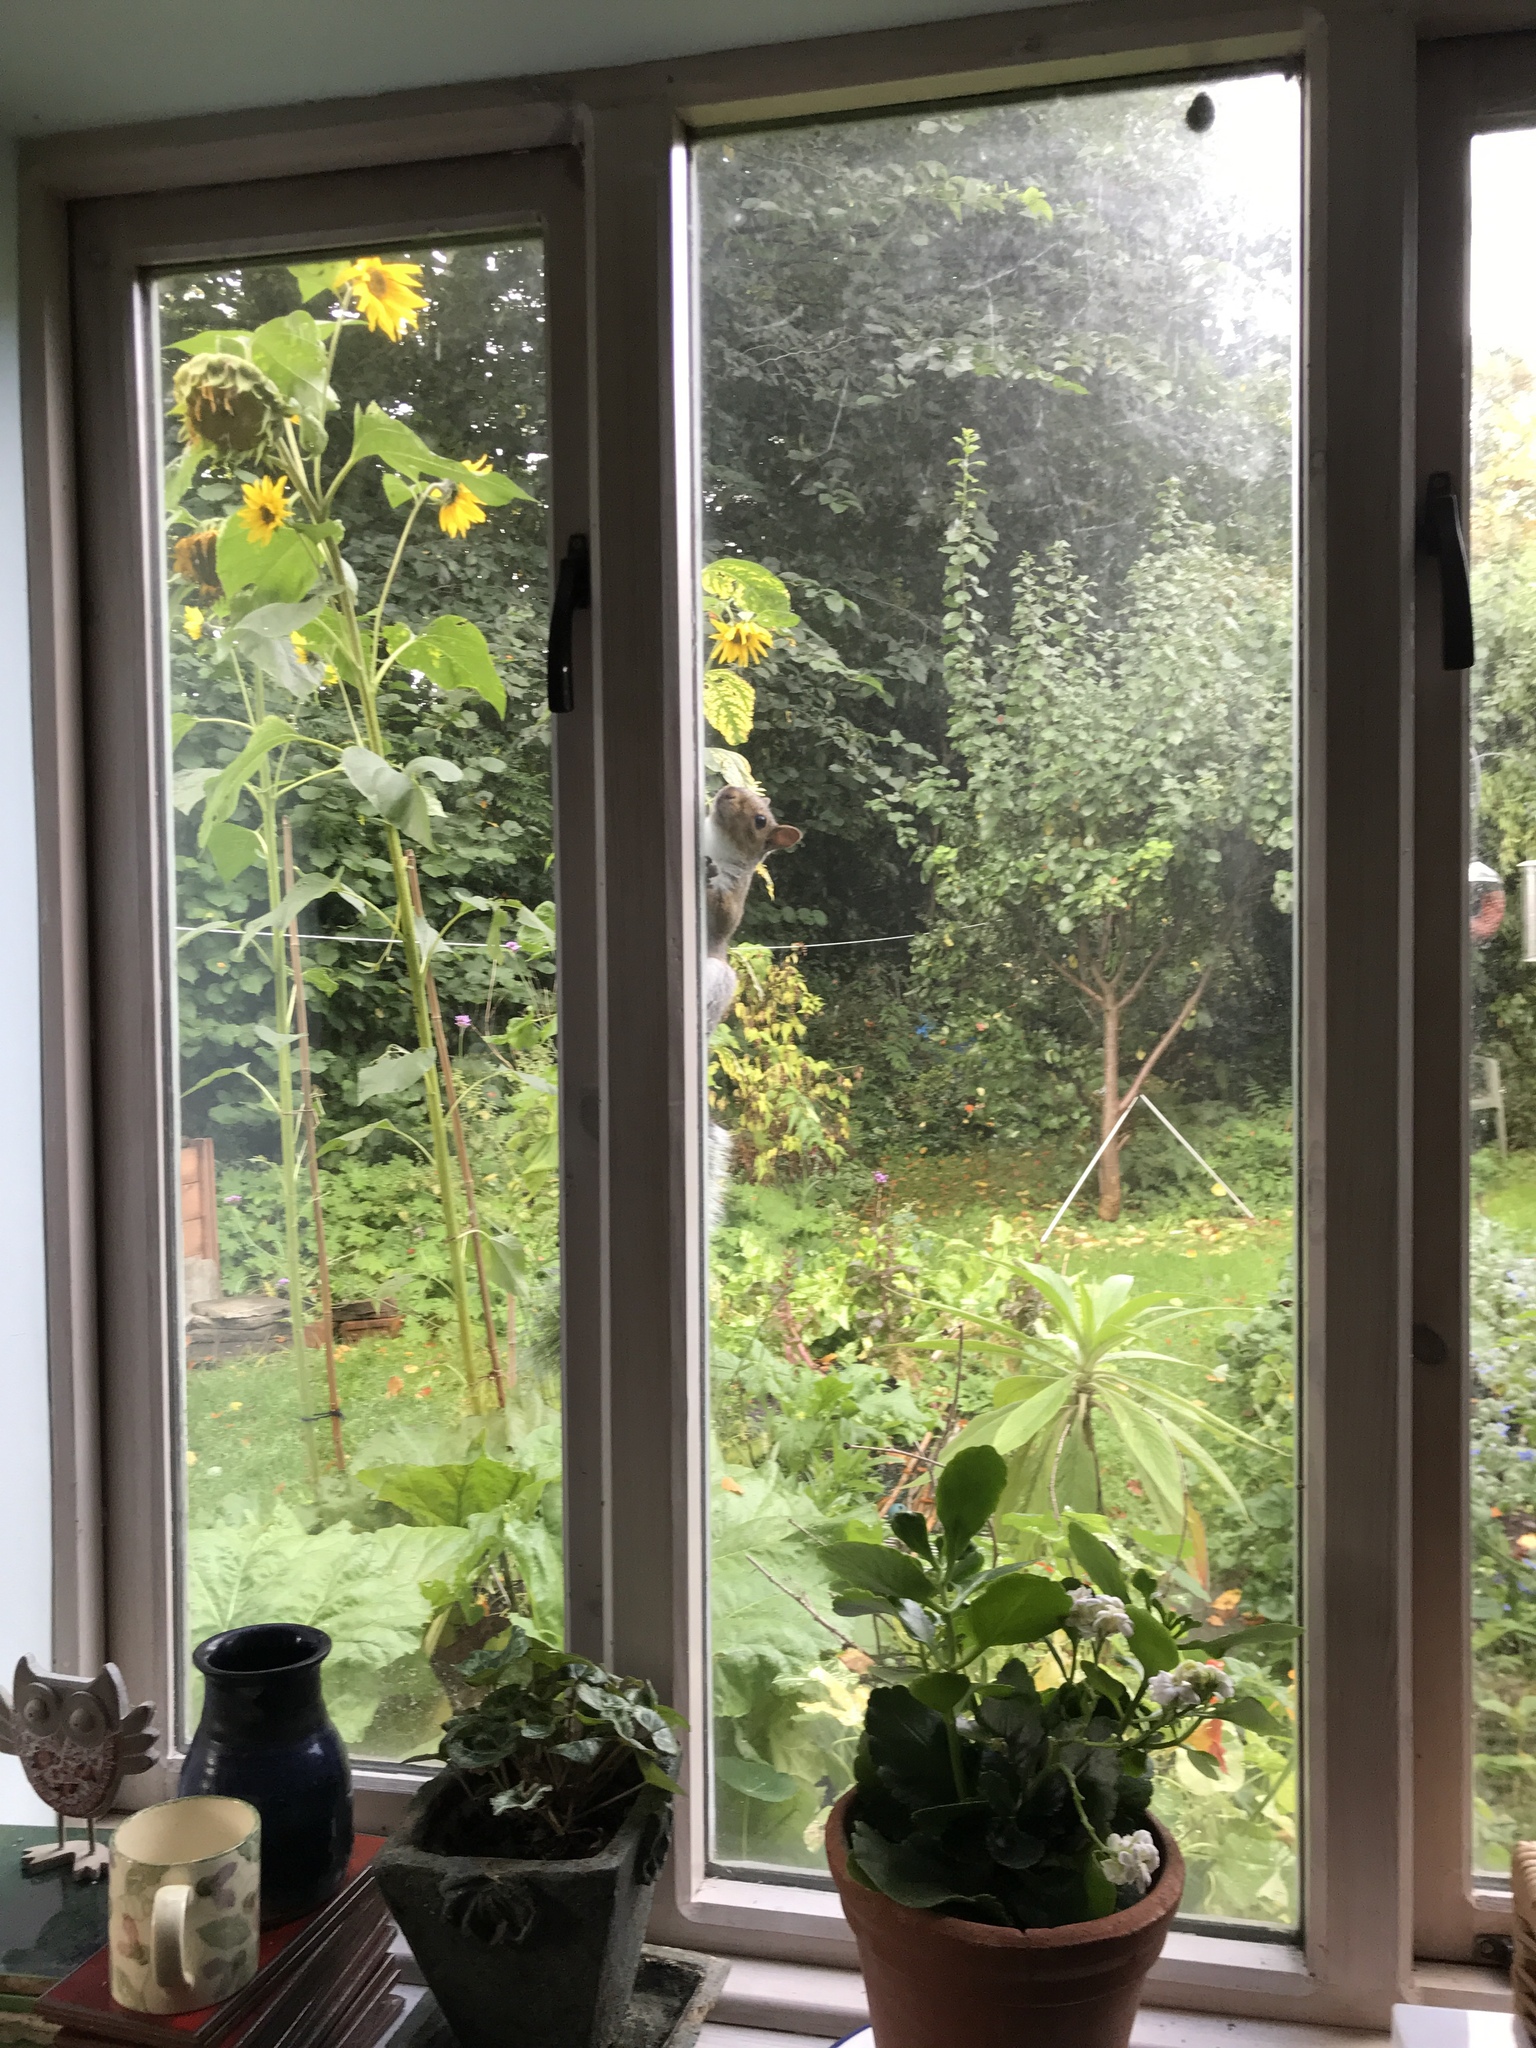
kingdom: Animalia
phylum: Chordata
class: Mammalia
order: Rodentia
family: Sciuridae
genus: Sciurus
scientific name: Sciurus carolinensis
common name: Eastern gray squirrel
